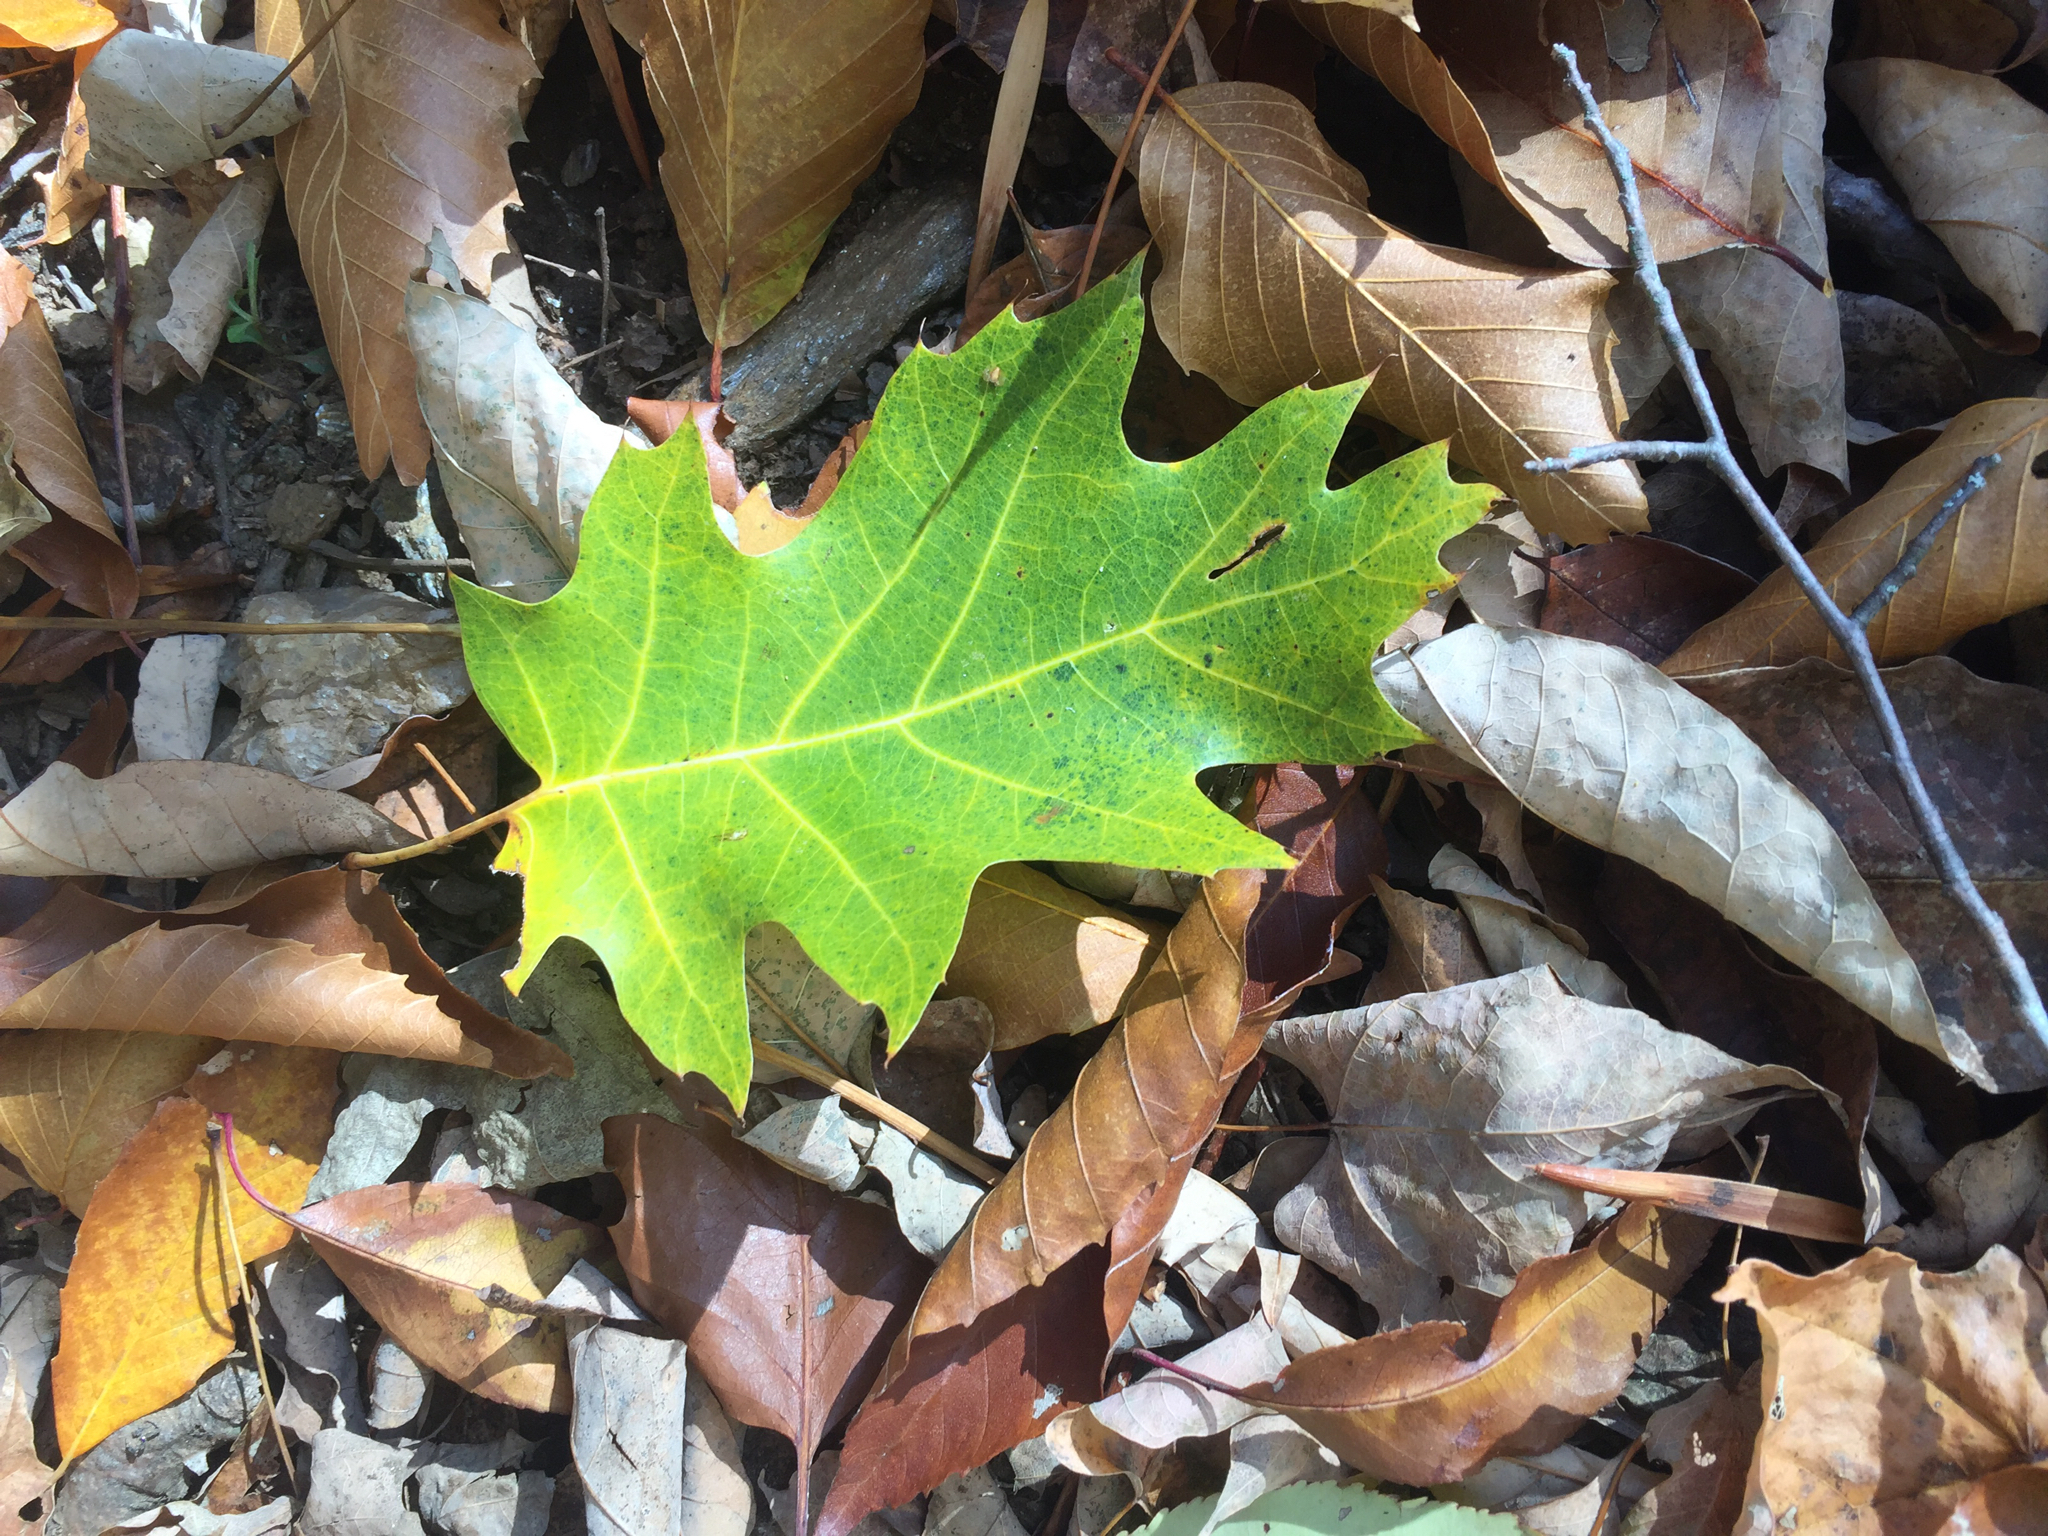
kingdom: Plantae
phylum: Tracheophyta
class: Magnoliopsida
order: Fagales
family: Fagaceae
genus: Quercus
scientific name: Quercus rubra
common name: Red oak
